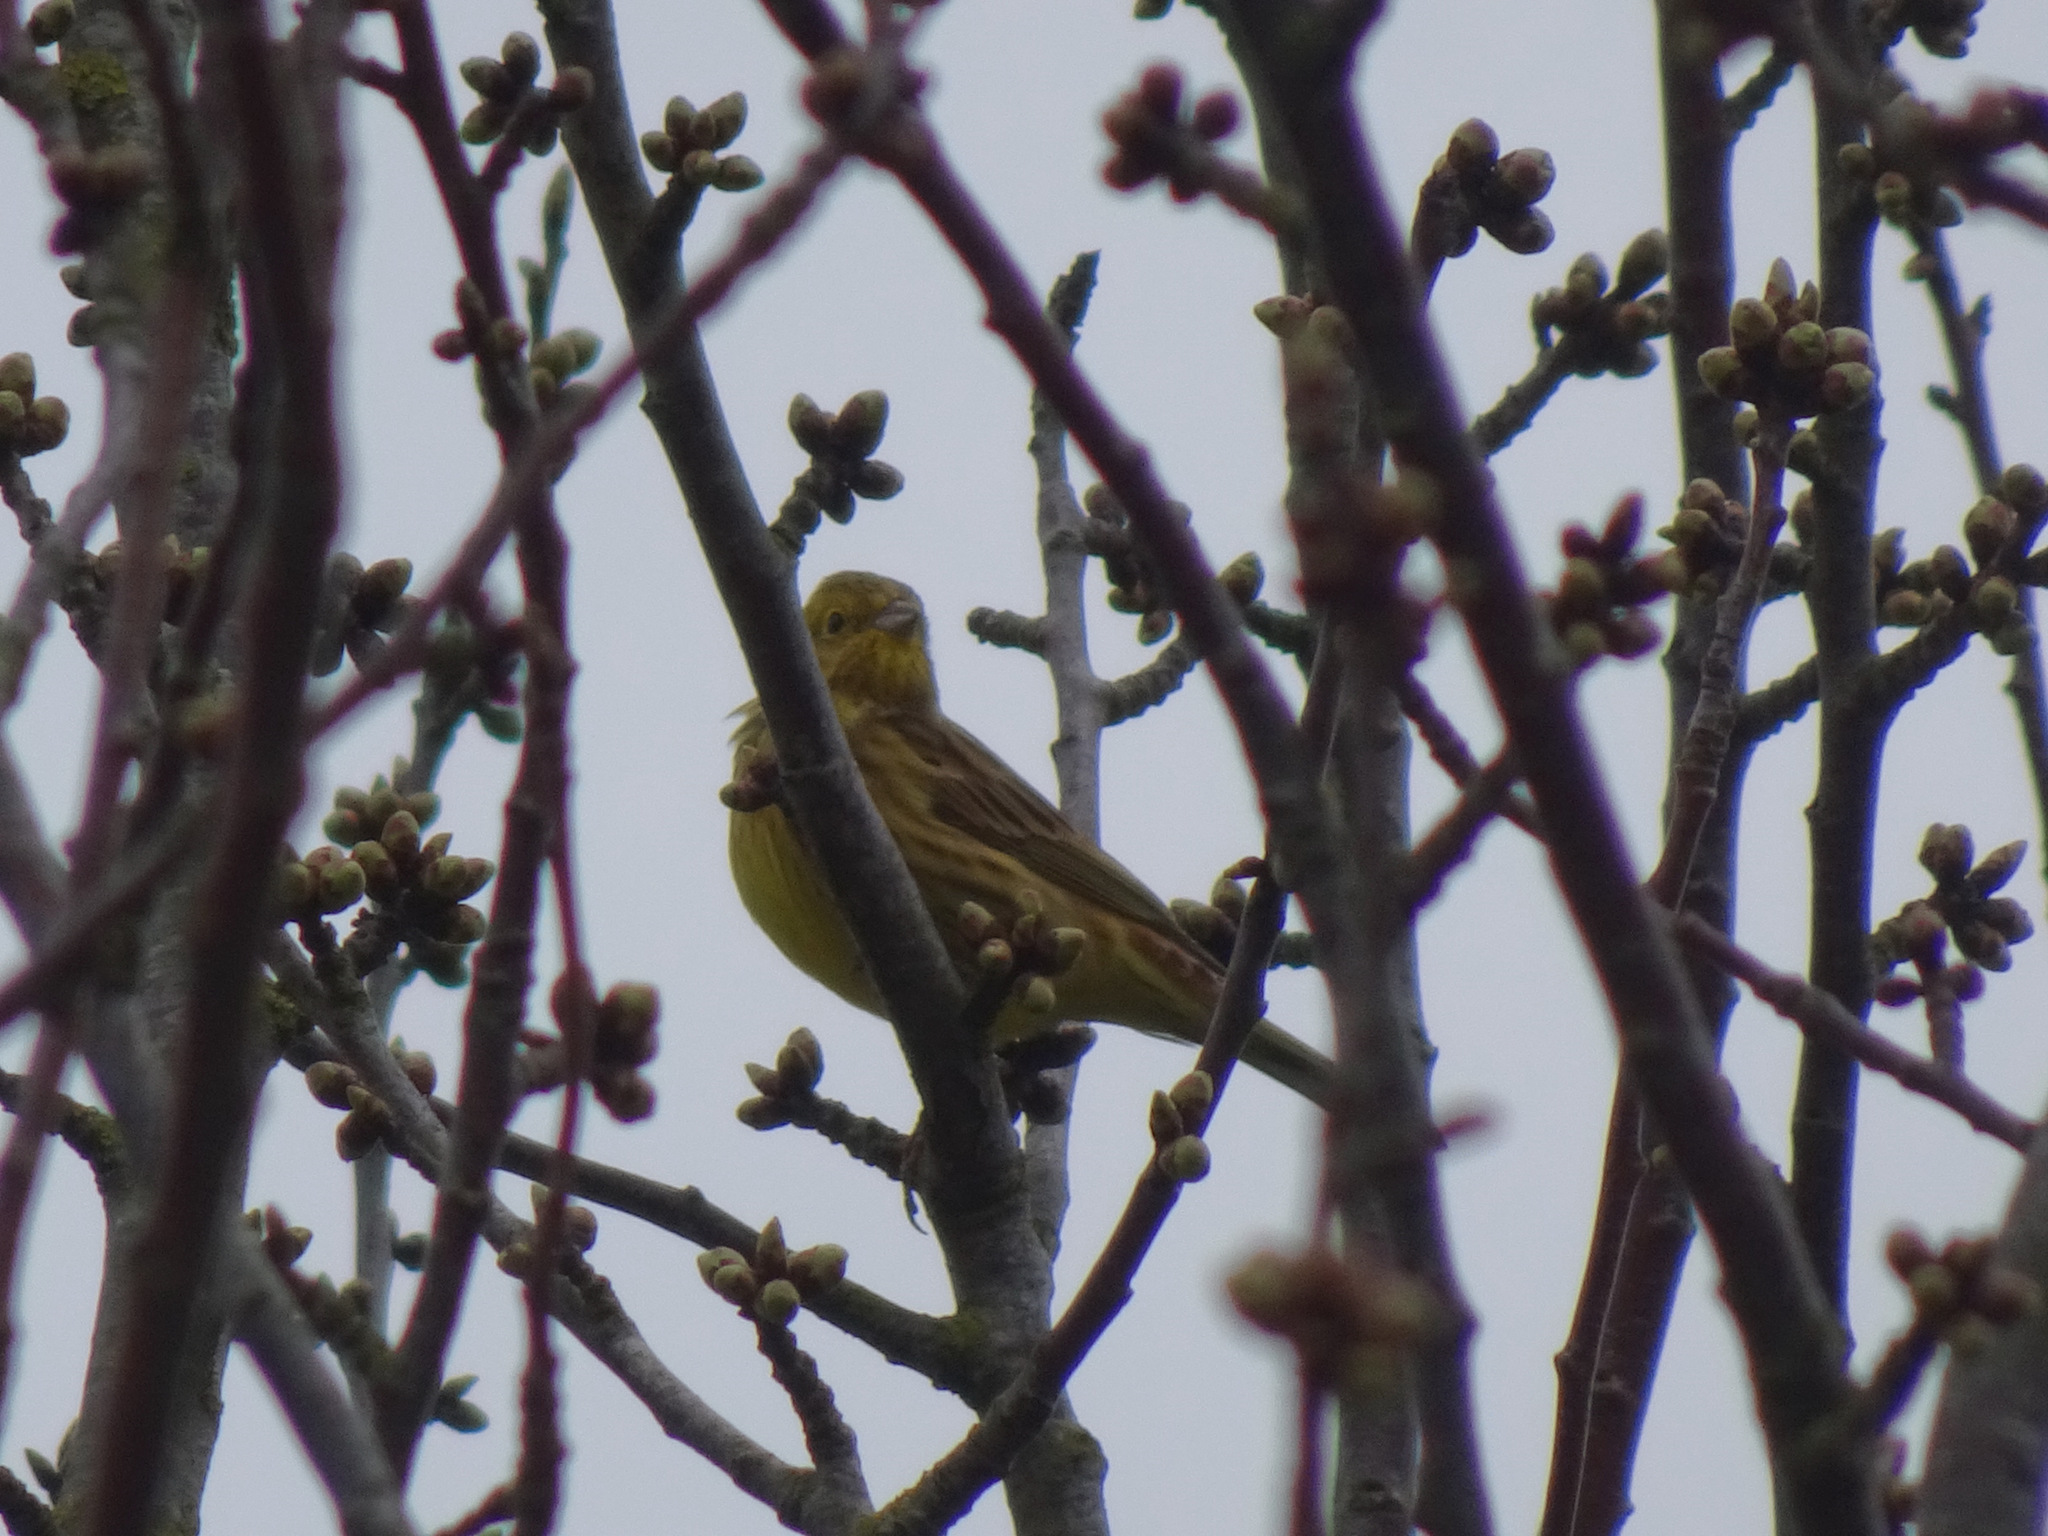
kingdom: Animalia
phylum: Chordata
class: Aves
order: Passeriformes
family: Emberizidae
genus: Emberiza
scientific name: Emberiza citrinella
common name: Yellowhammer
